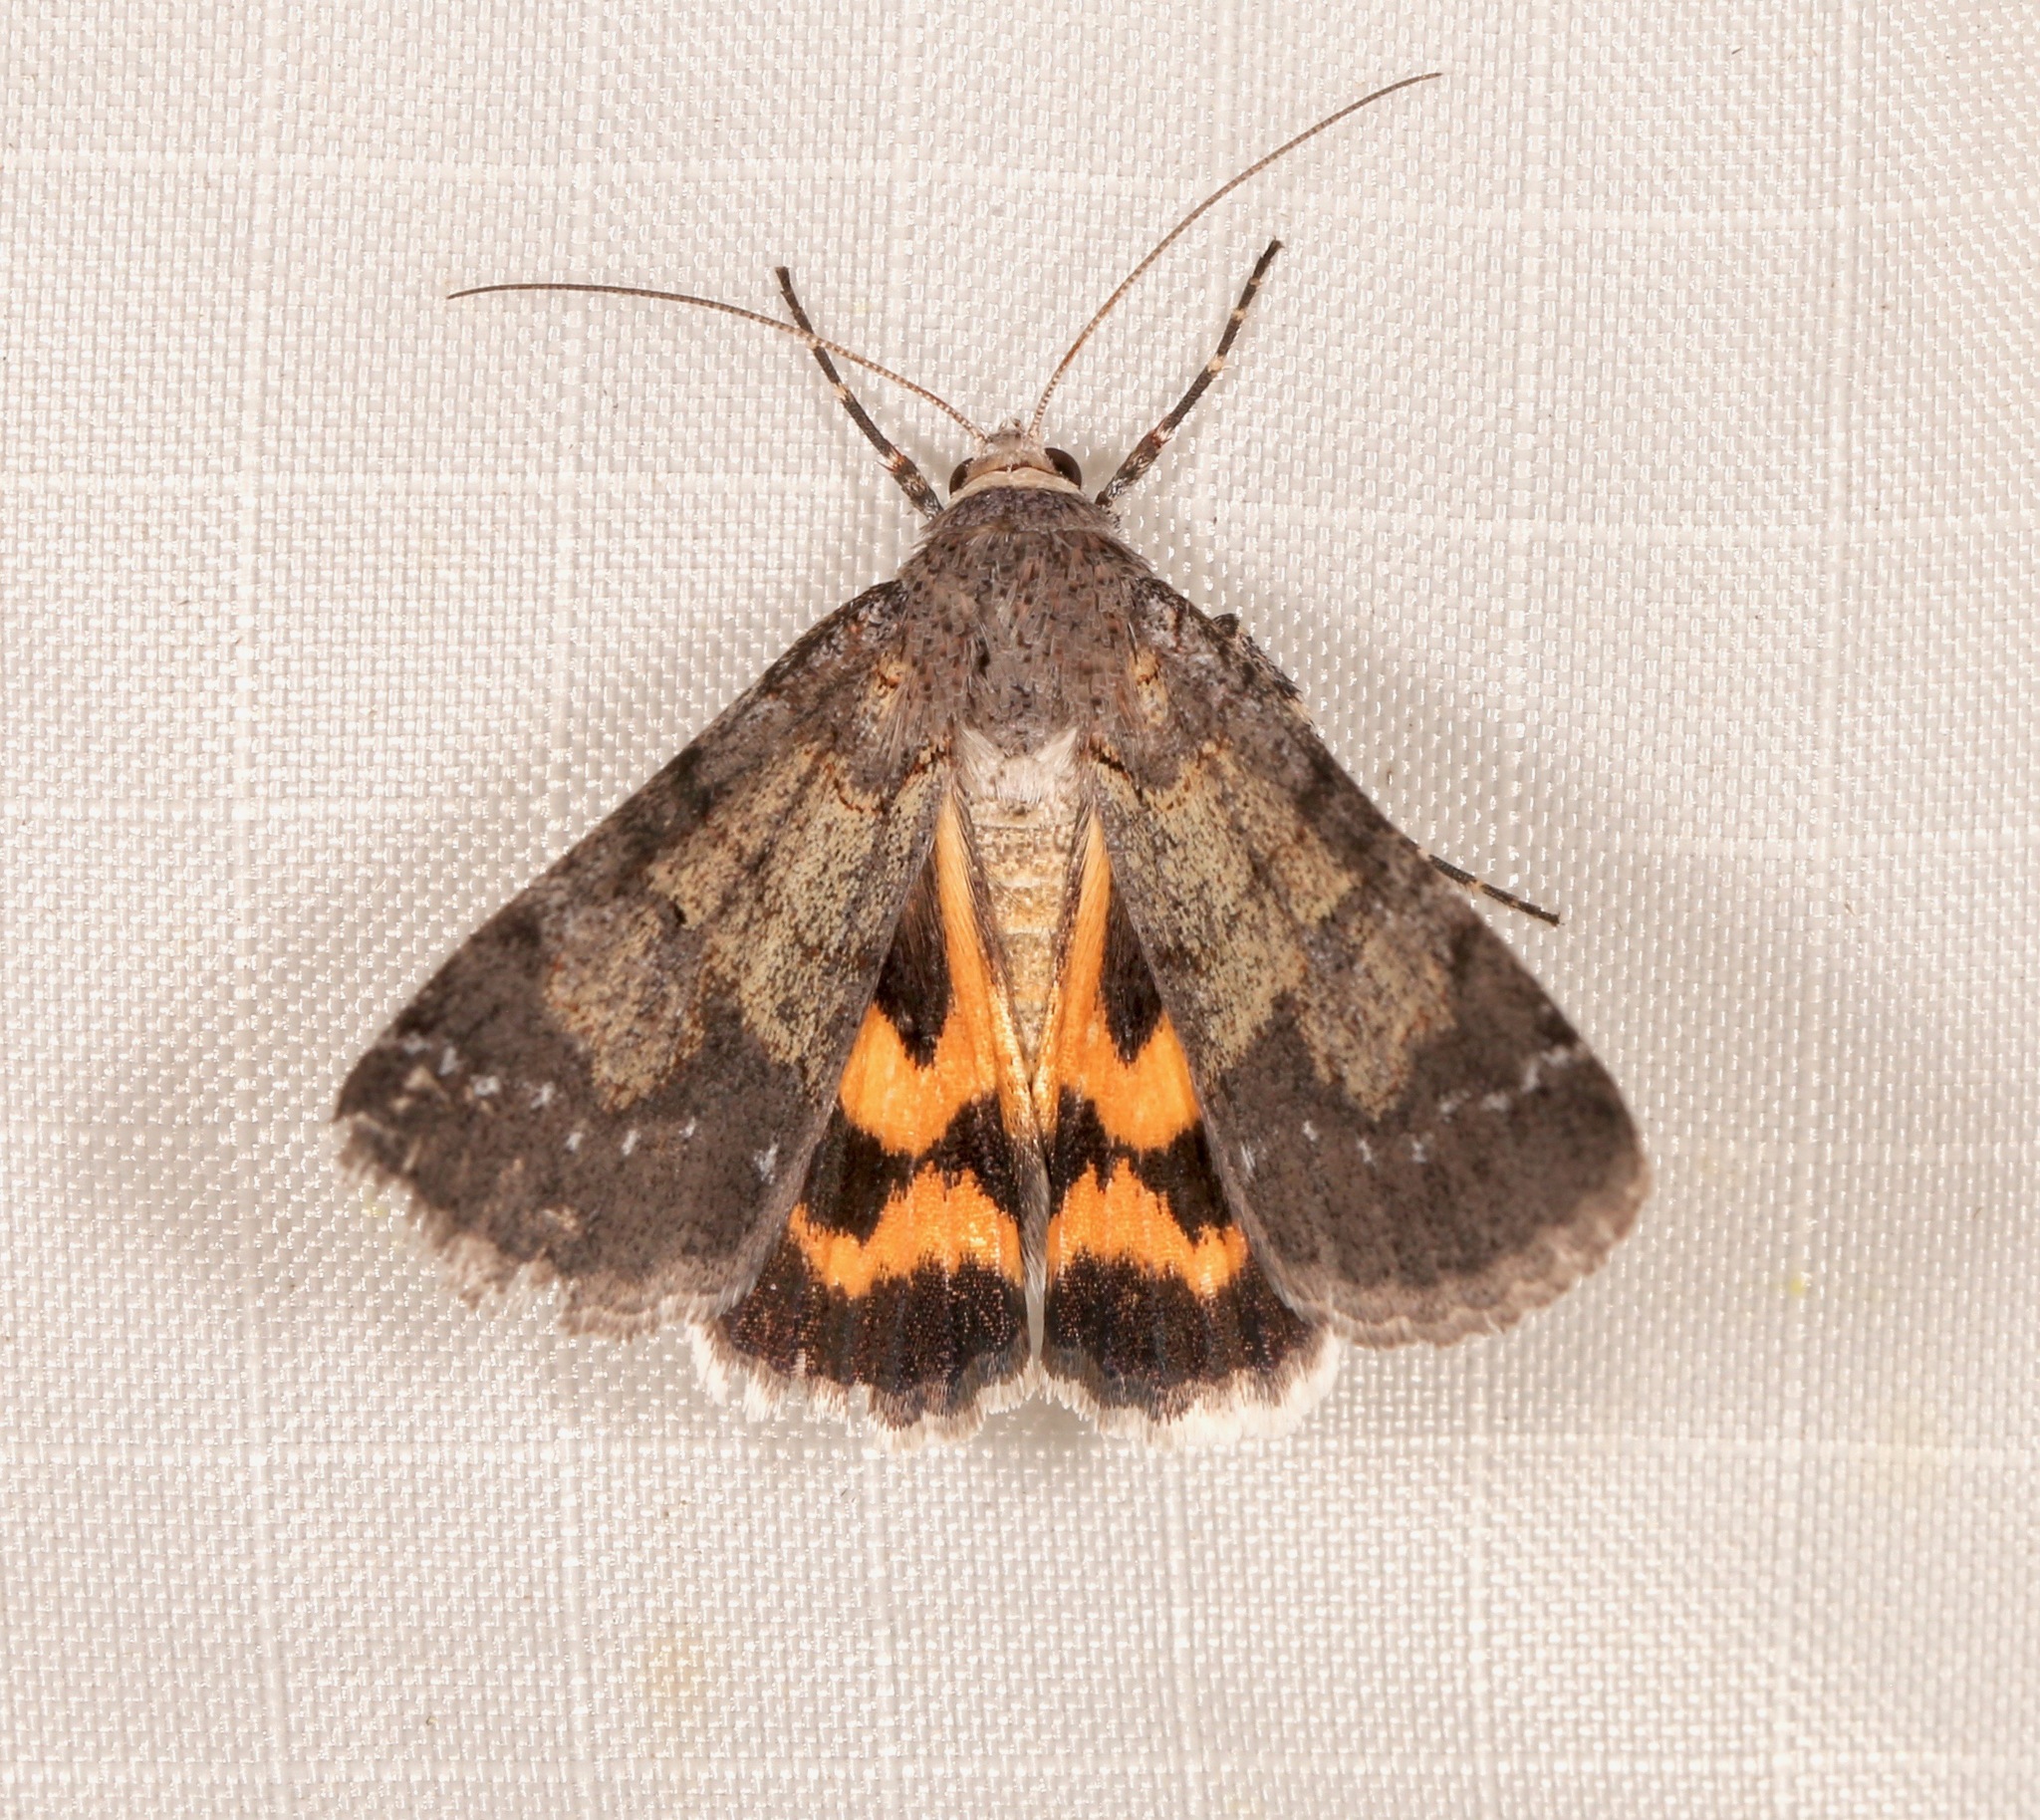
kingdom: Animalia
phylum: Arthropoda
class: Insecta
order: Lepidoptera
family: Erebidae
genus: Drasteria
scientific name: Drasteria graphica
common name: Coastal graphic
